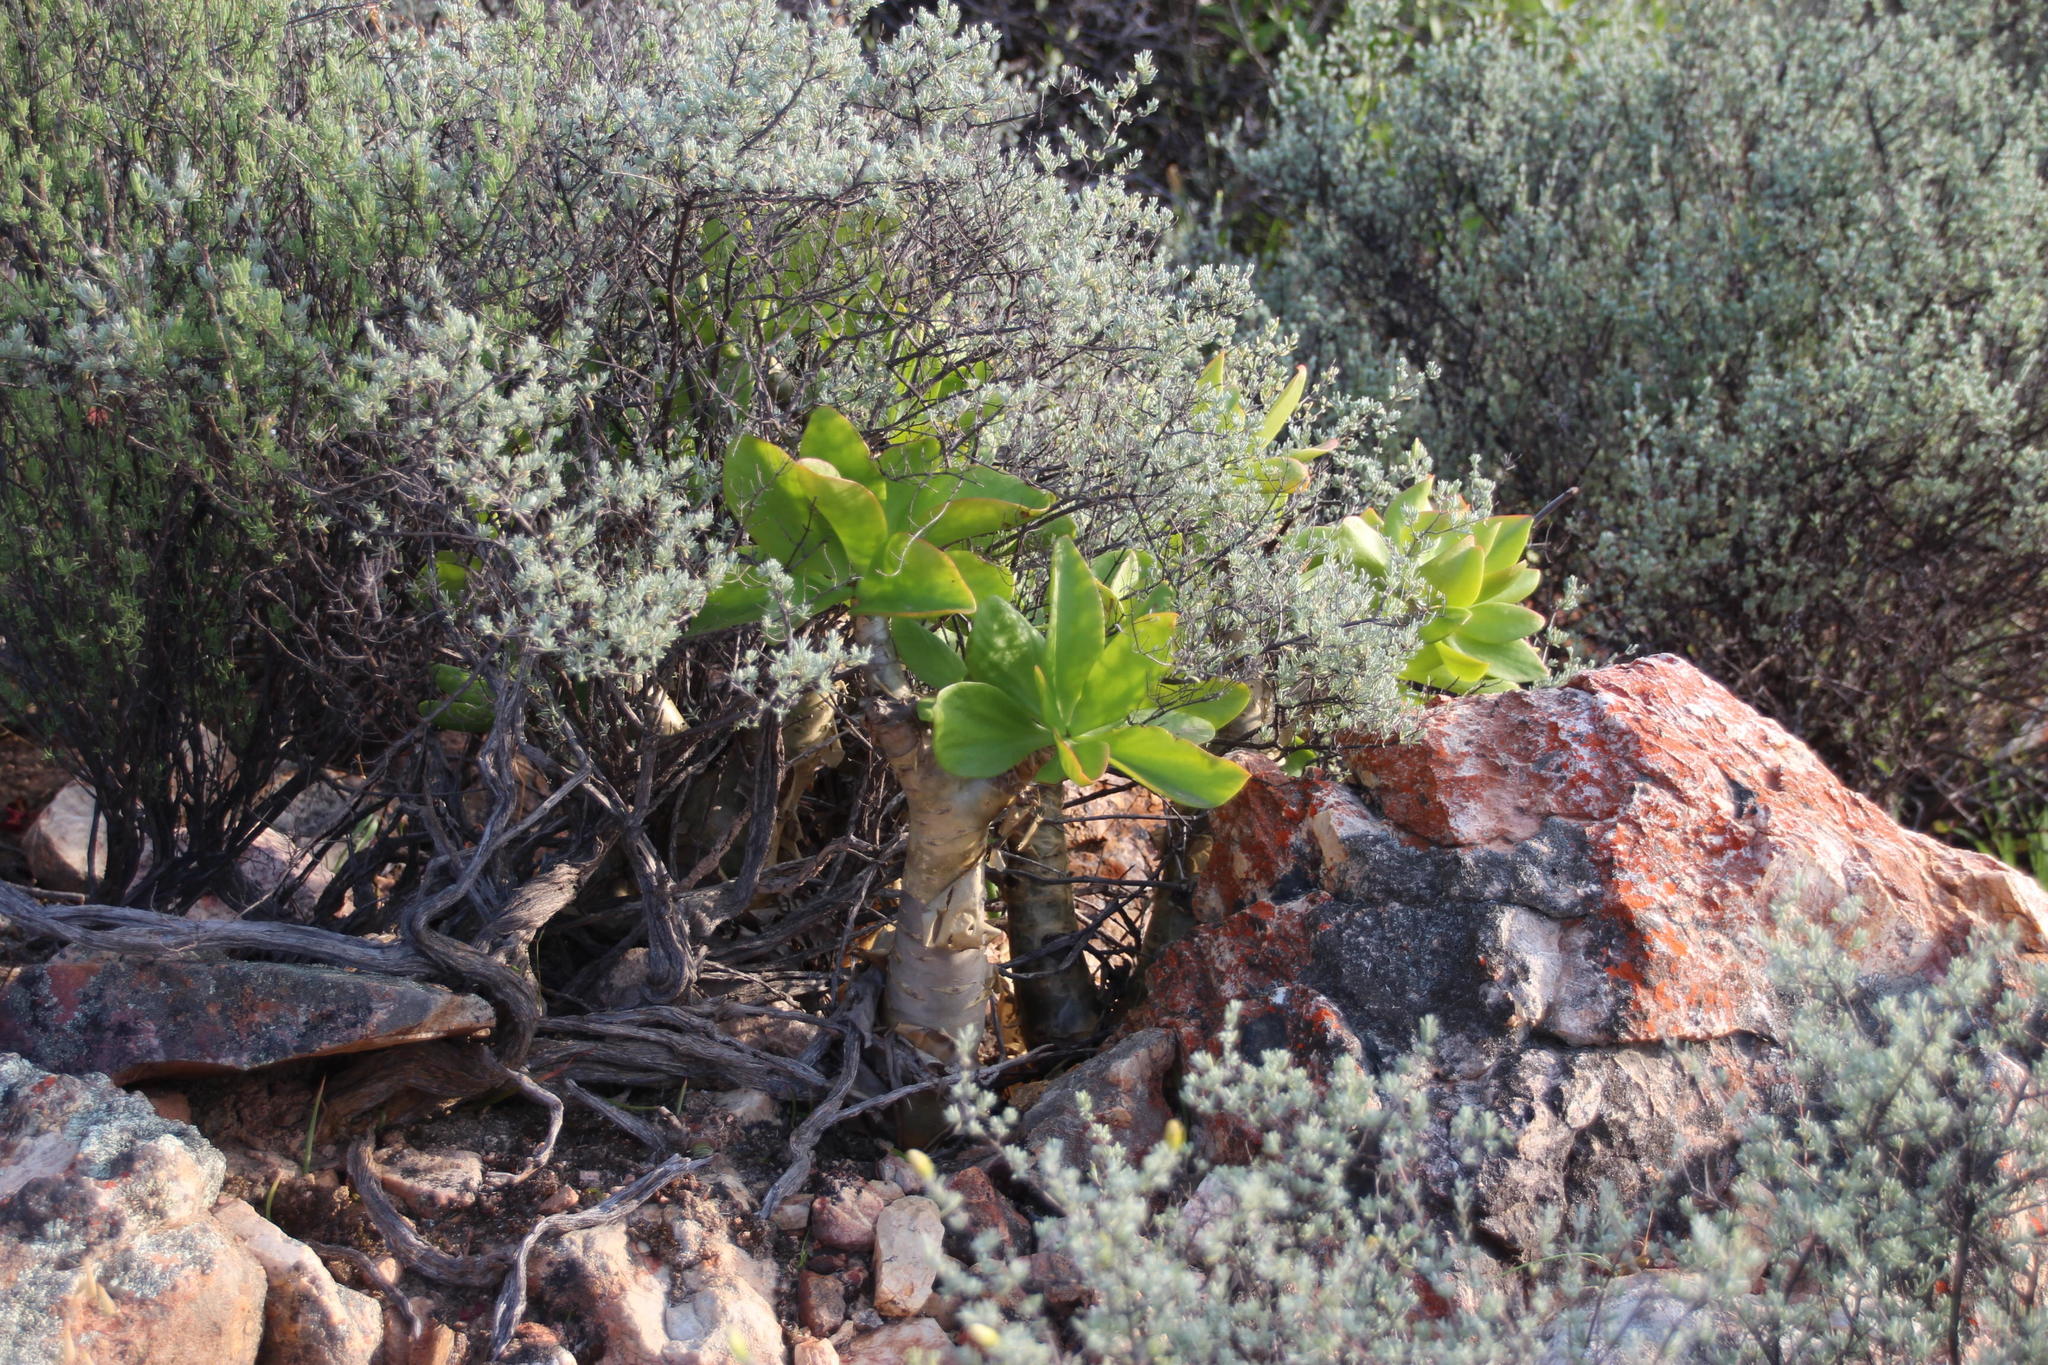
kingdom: Plantae
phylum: Tracheophyta
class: Magnoliopsida
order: Saxifragales
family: Crassulaceae
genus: Tylecodon
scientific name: Tylecodon paniculatus
